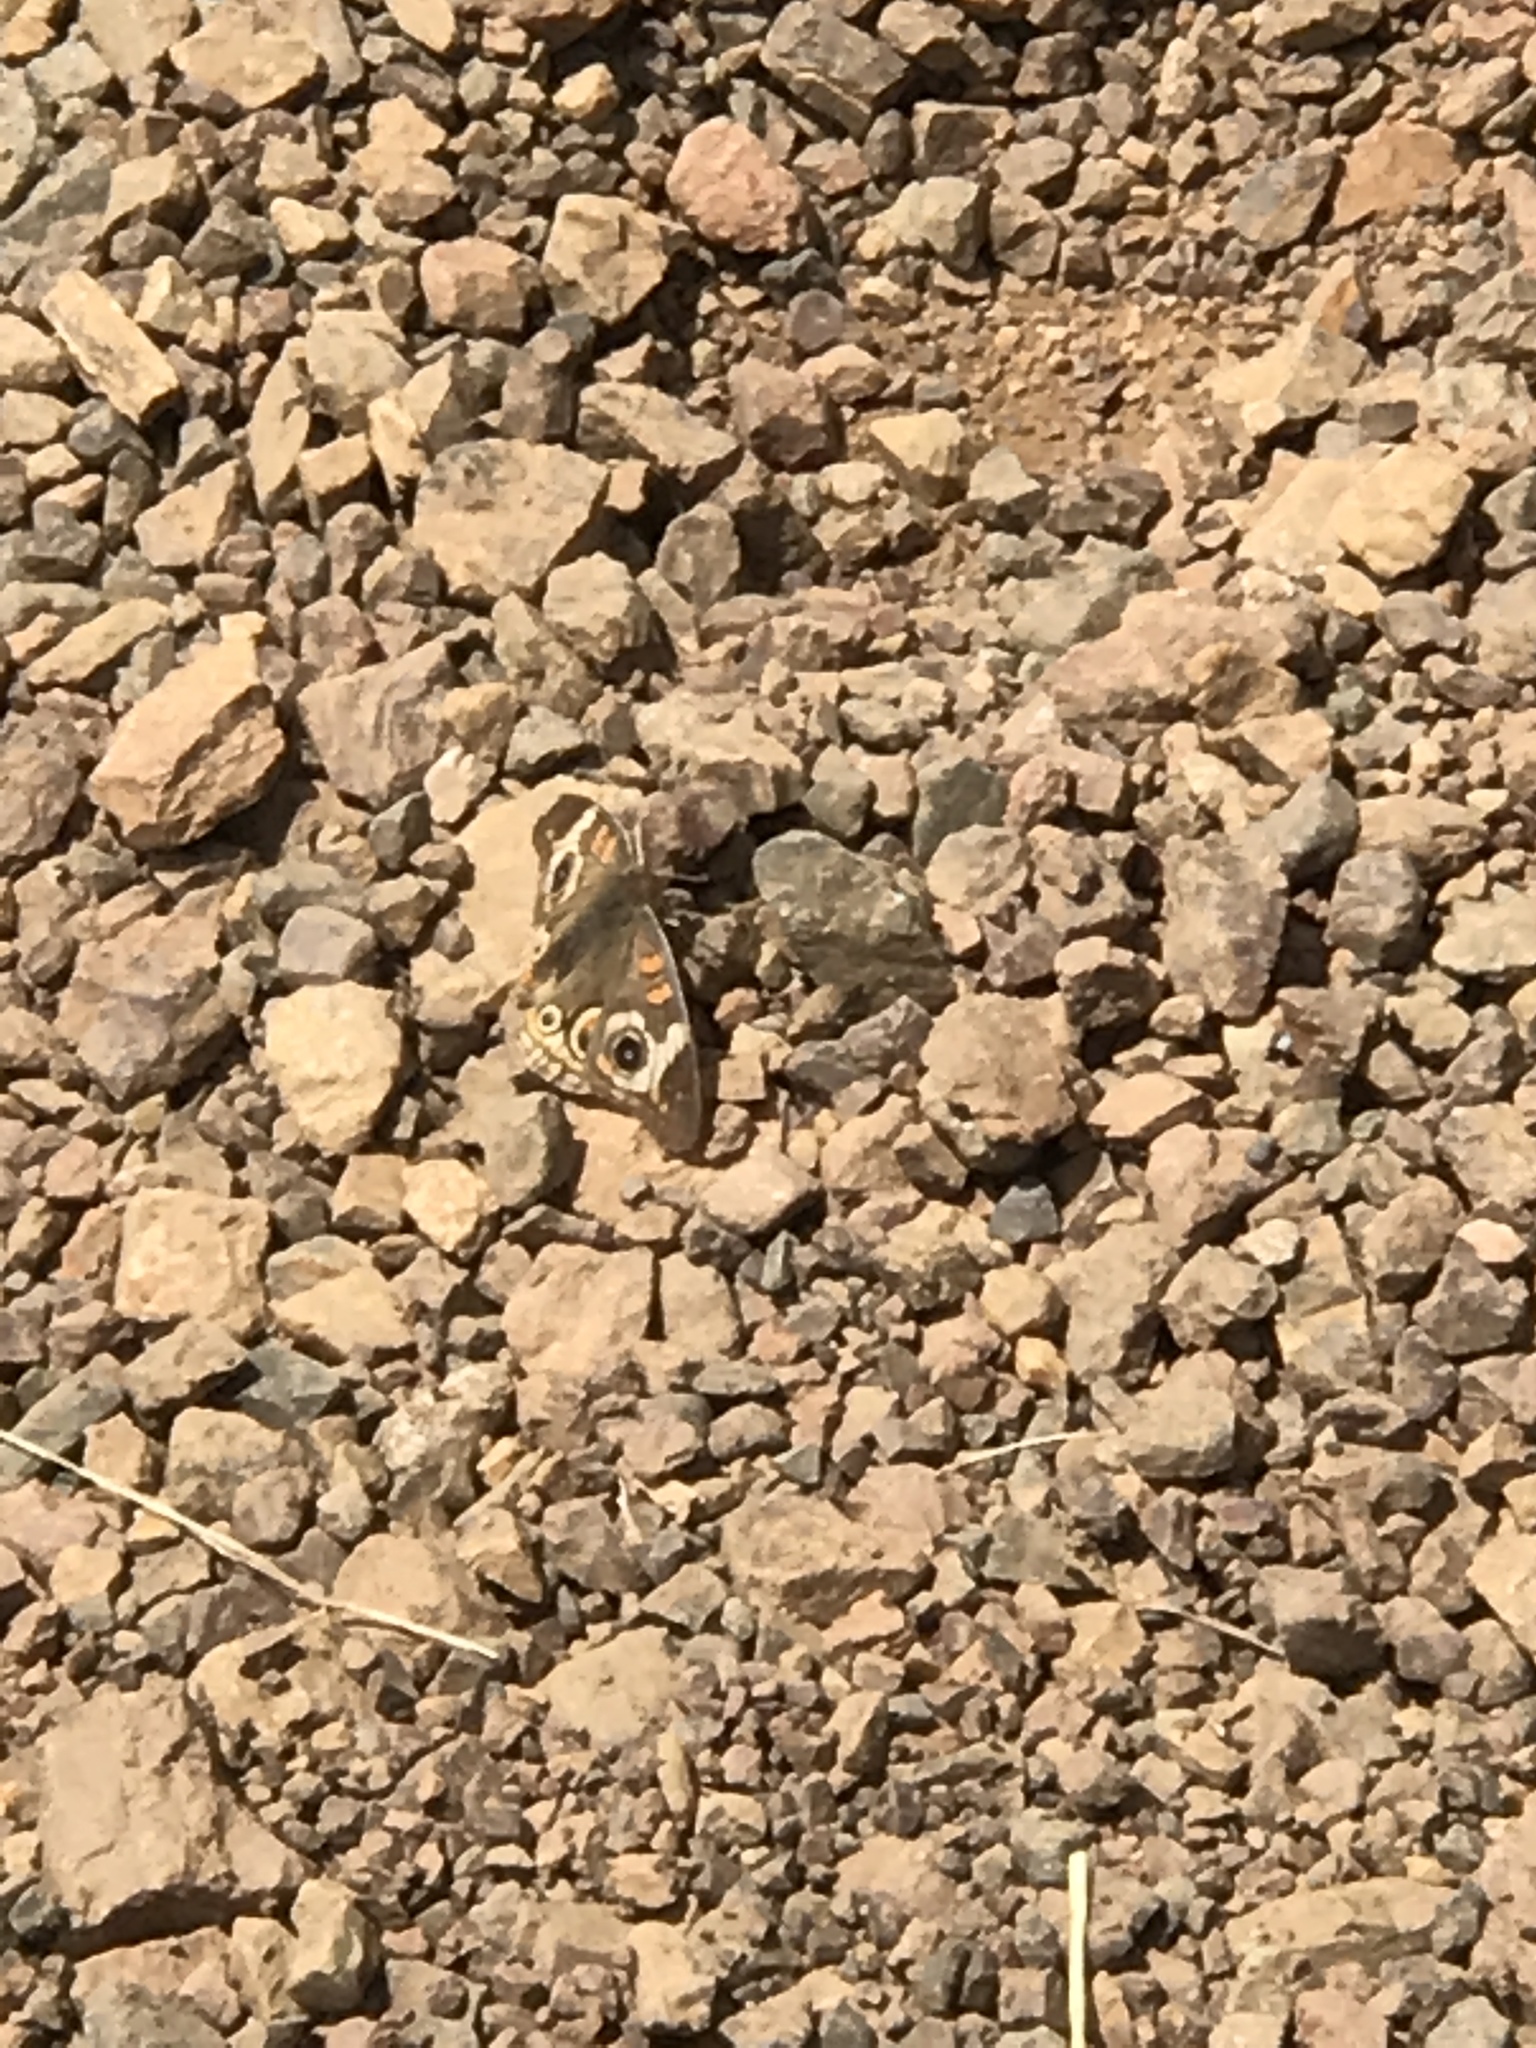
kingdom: Animalia
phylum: Arthropoda
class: Insecta
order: Lepidoptera
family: Nymphalidae
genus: Junonia
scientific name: Junonia grisea
